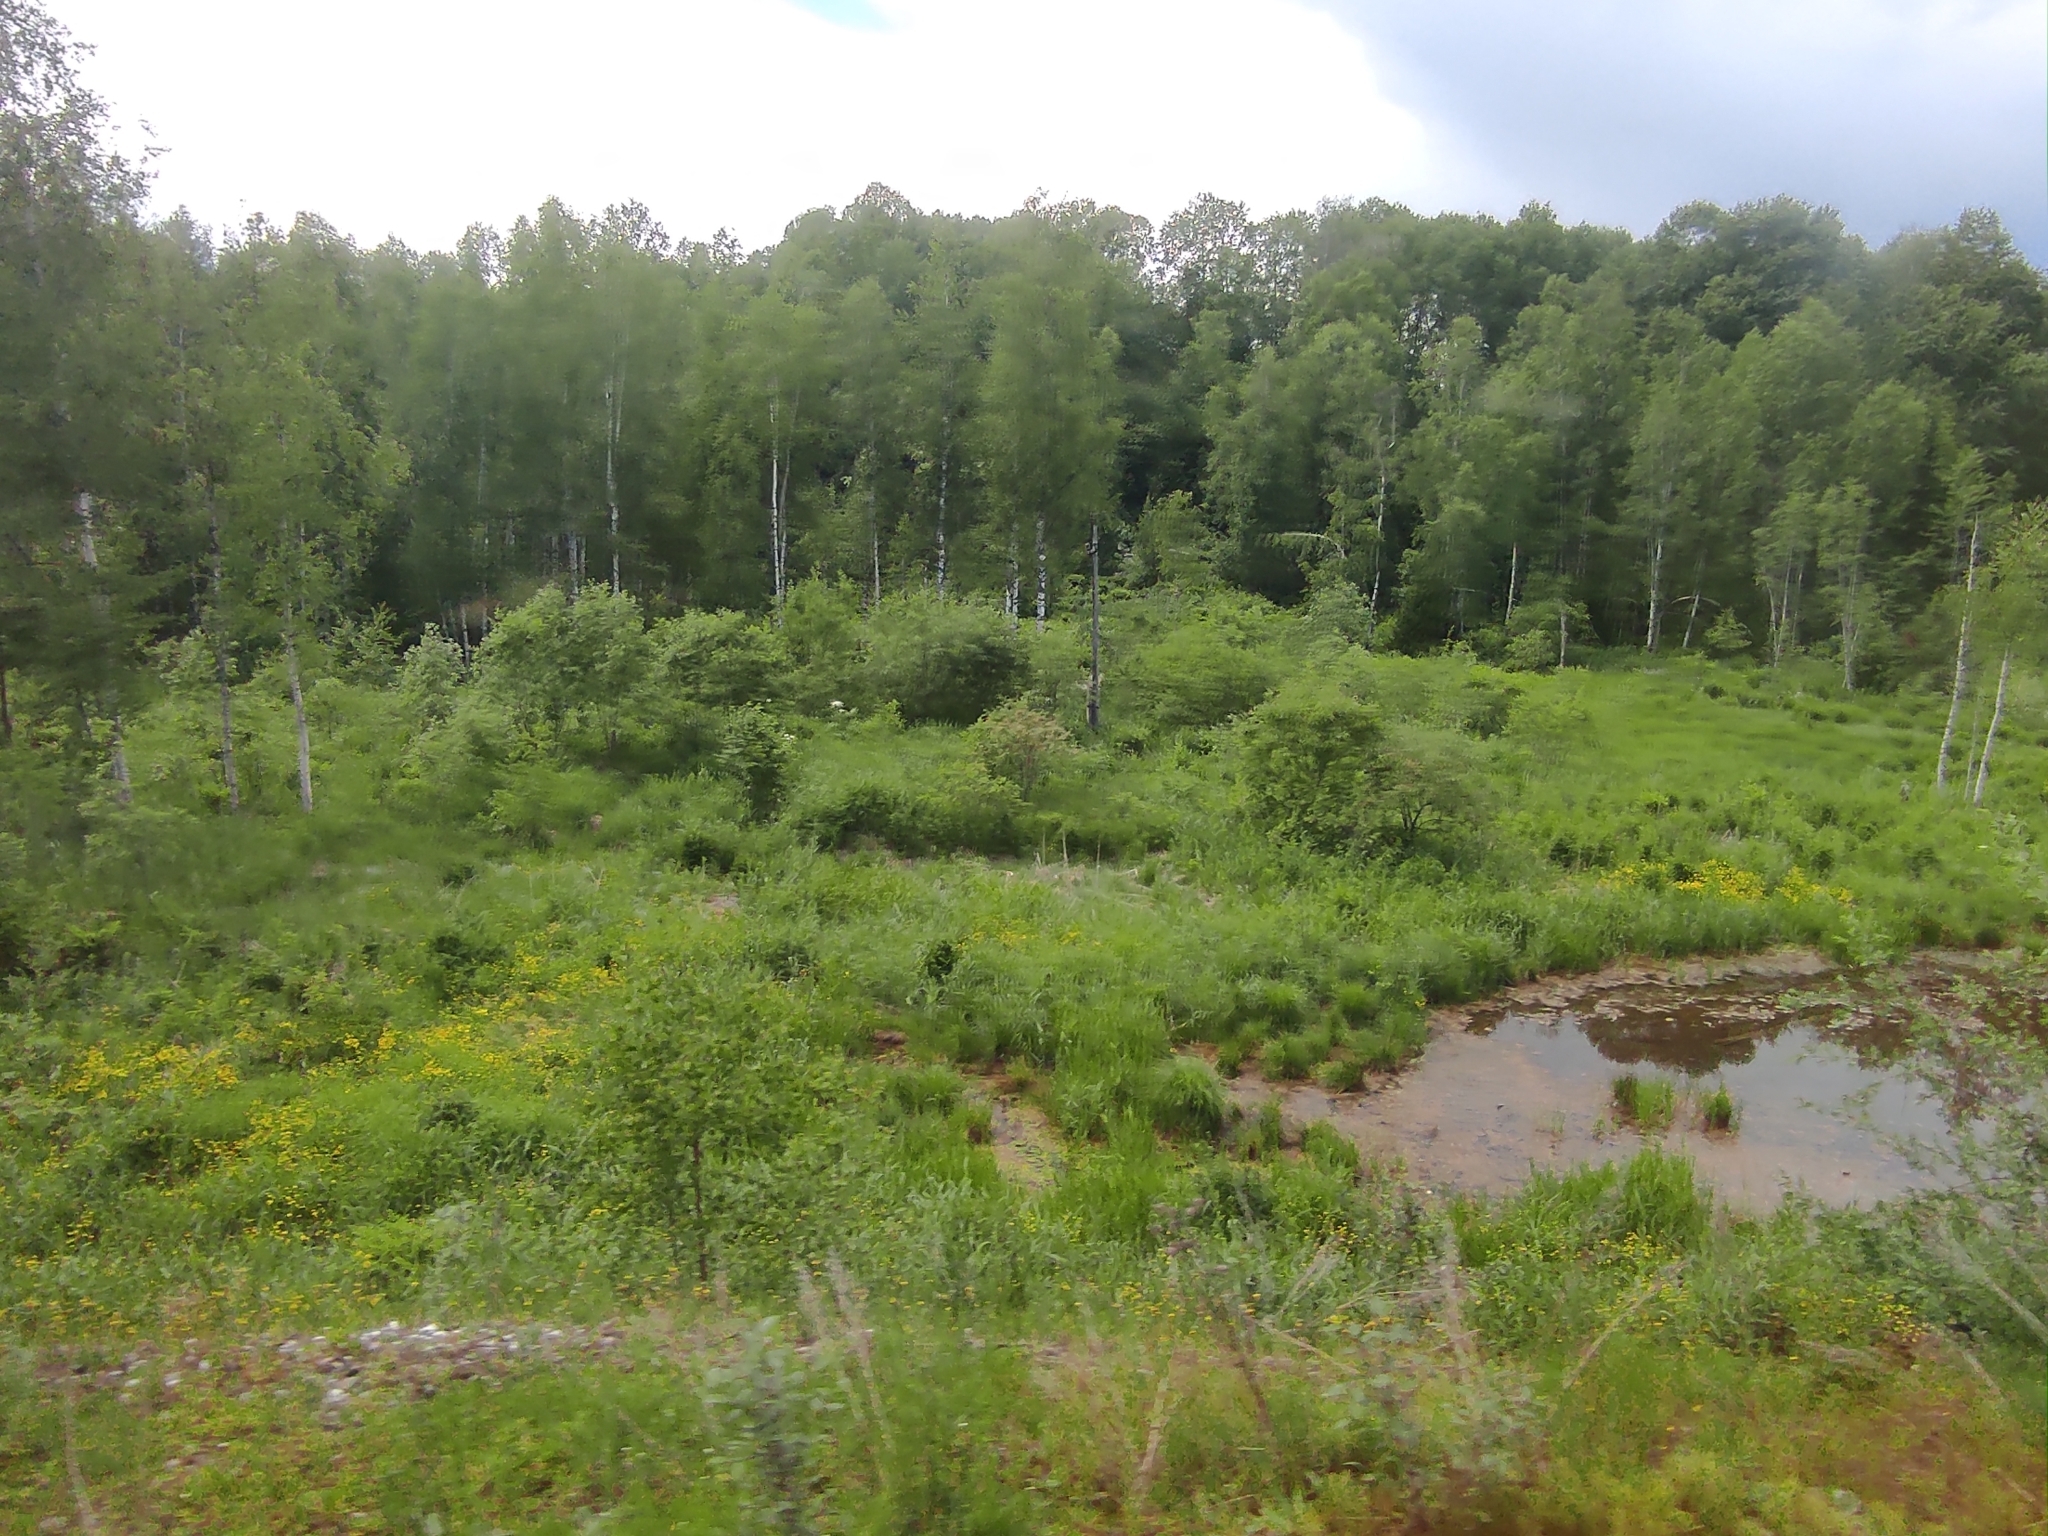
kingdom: Plantae
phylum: Tracheophyta
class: Magnoliopsida
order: Fagales
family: Betulaceae
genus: Betula
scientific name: Betula pendula
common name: Silver birch
